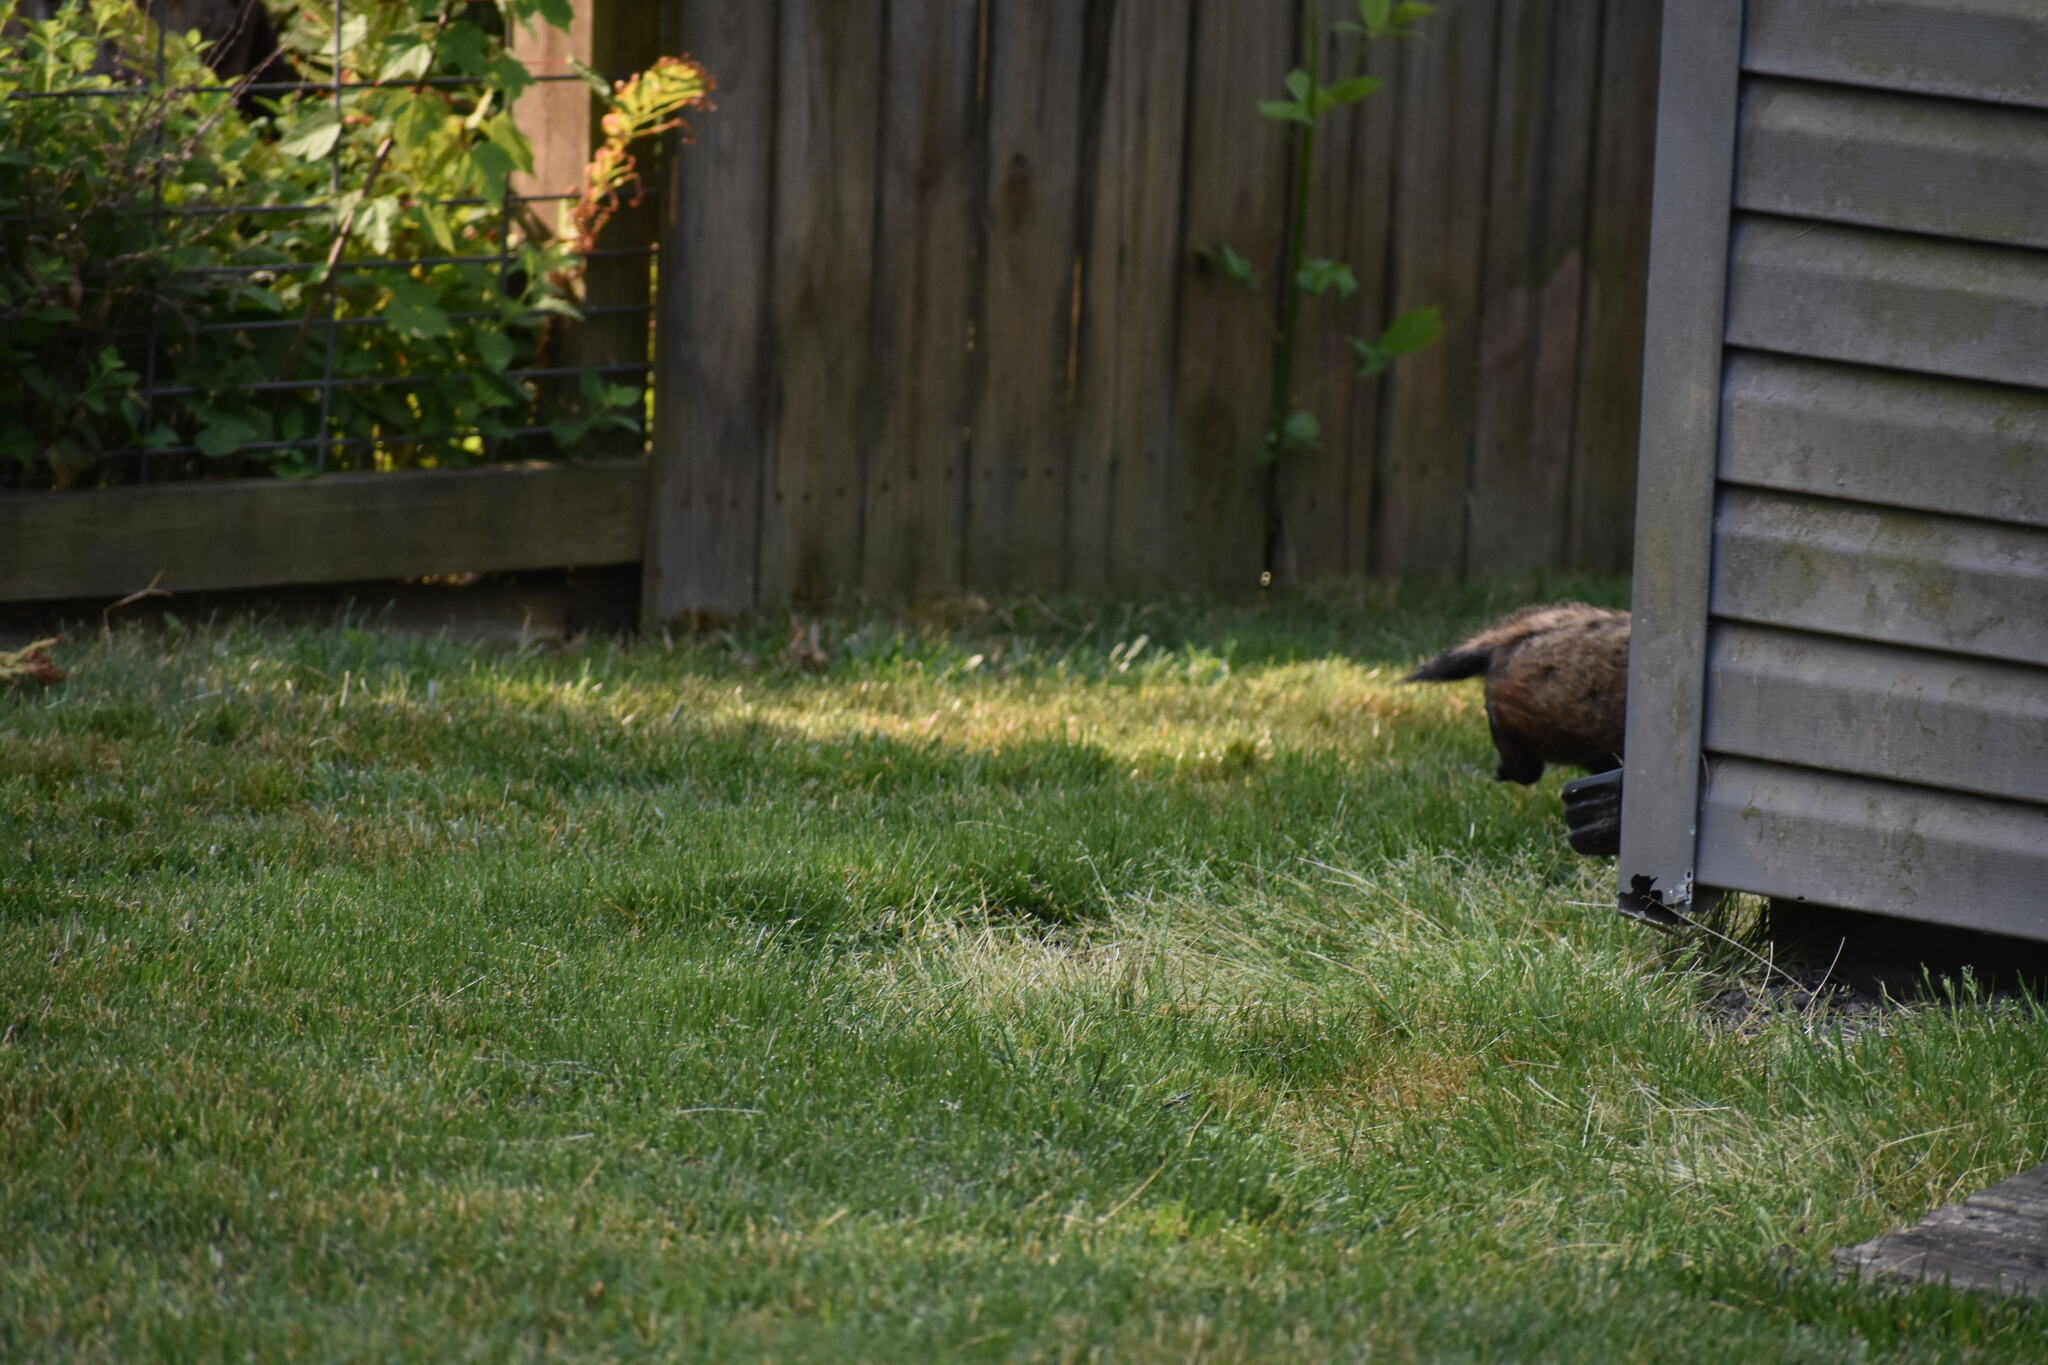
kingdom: Animalia
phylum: Chordata
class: Mammalia
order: Rodentia
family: Sciuridae
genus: Marmota
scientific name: Marmota monax
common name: Groundhog
